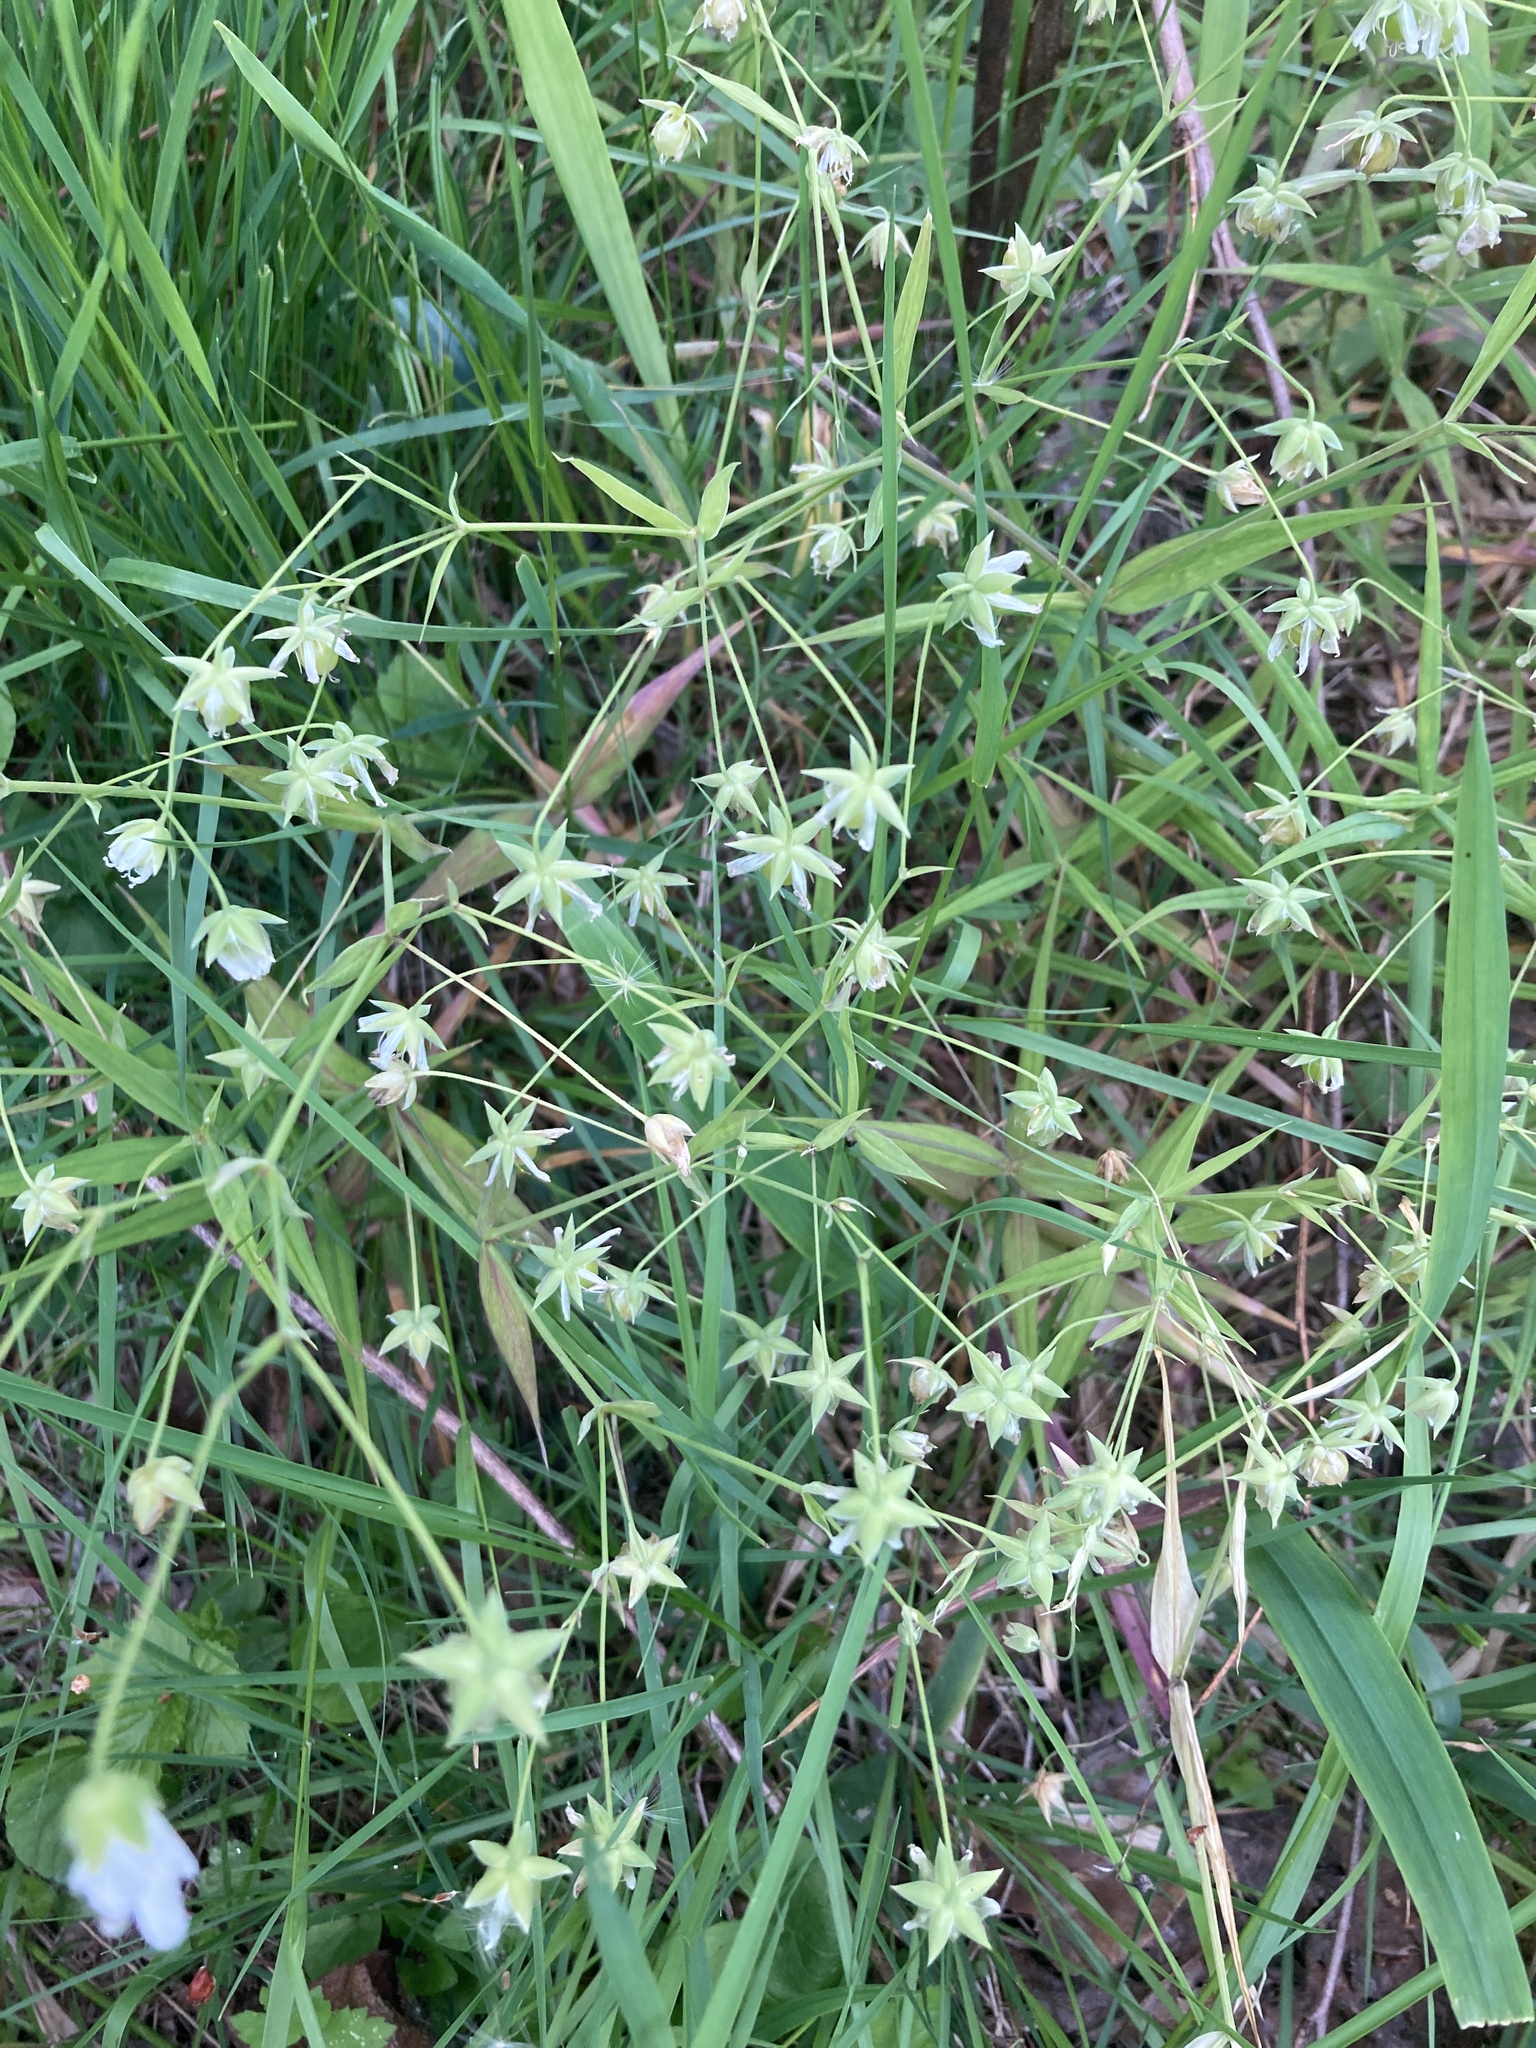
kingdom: Plantae
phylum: Tracheophyta
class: Magnoliopsida
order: Caryophyllales
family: Caryophyllaceae
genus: Rabelera
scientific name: Rabelera holostea
